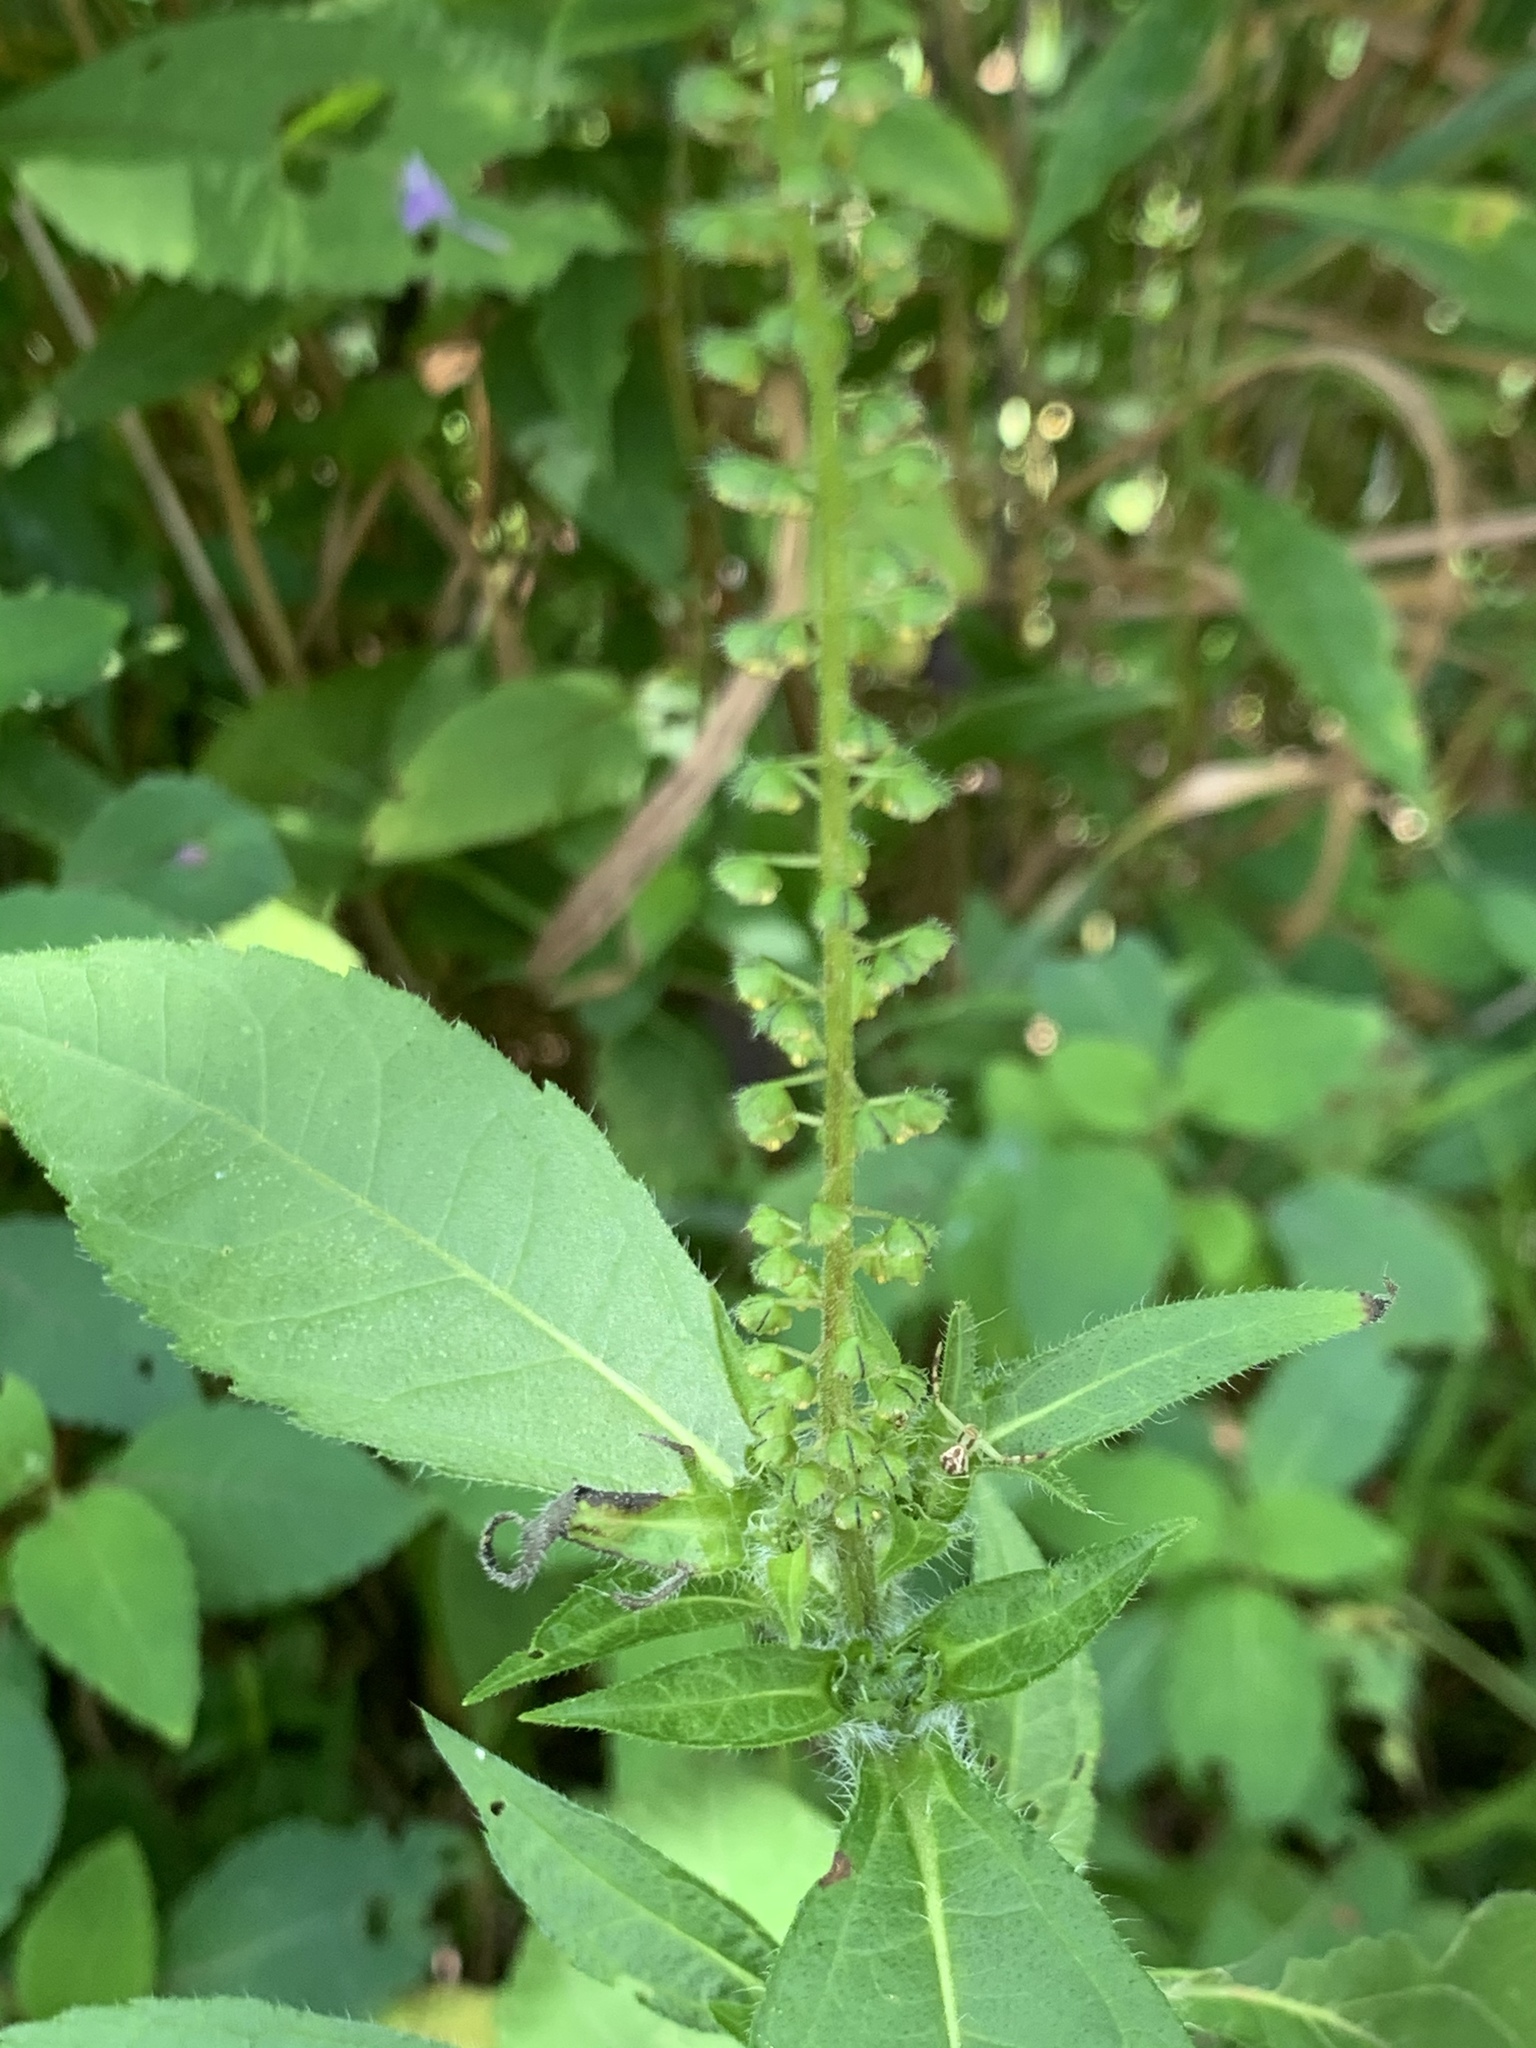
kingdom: Plantae
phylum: Tracheophyta
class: Magnoliopsida
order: Asterales
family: Asteraceae
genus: Ambrosia
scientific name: Ambrosia trifida
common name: Giant ragweed
